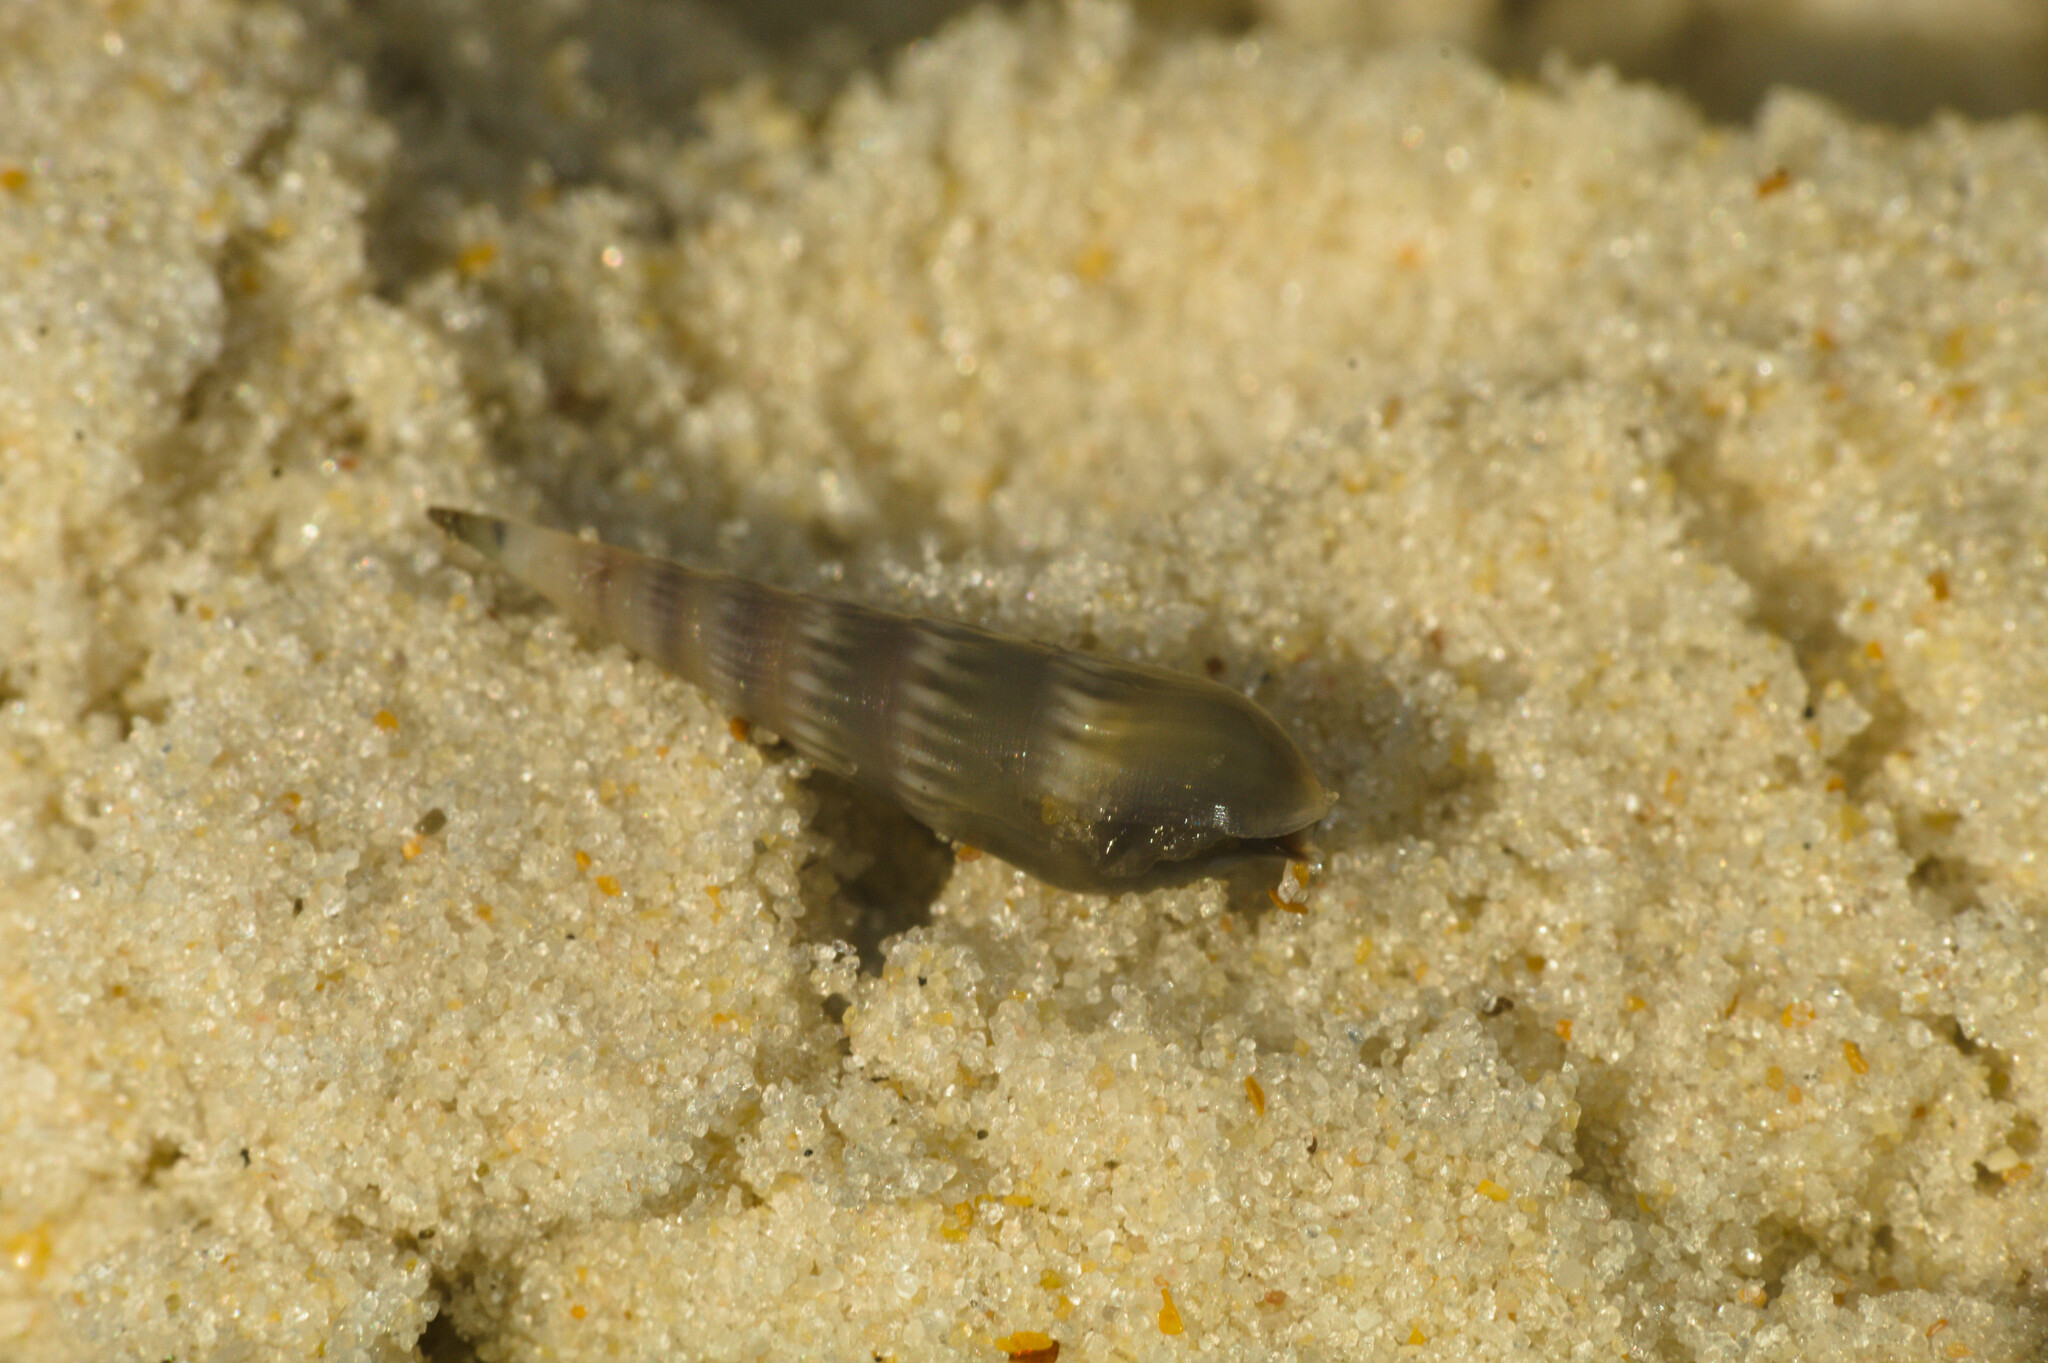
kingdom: Animalia
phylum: Mollusca
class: Gastropoda
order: Neogastropoda
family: Terebridae
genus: Hastula
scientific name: Hastula cinerea
